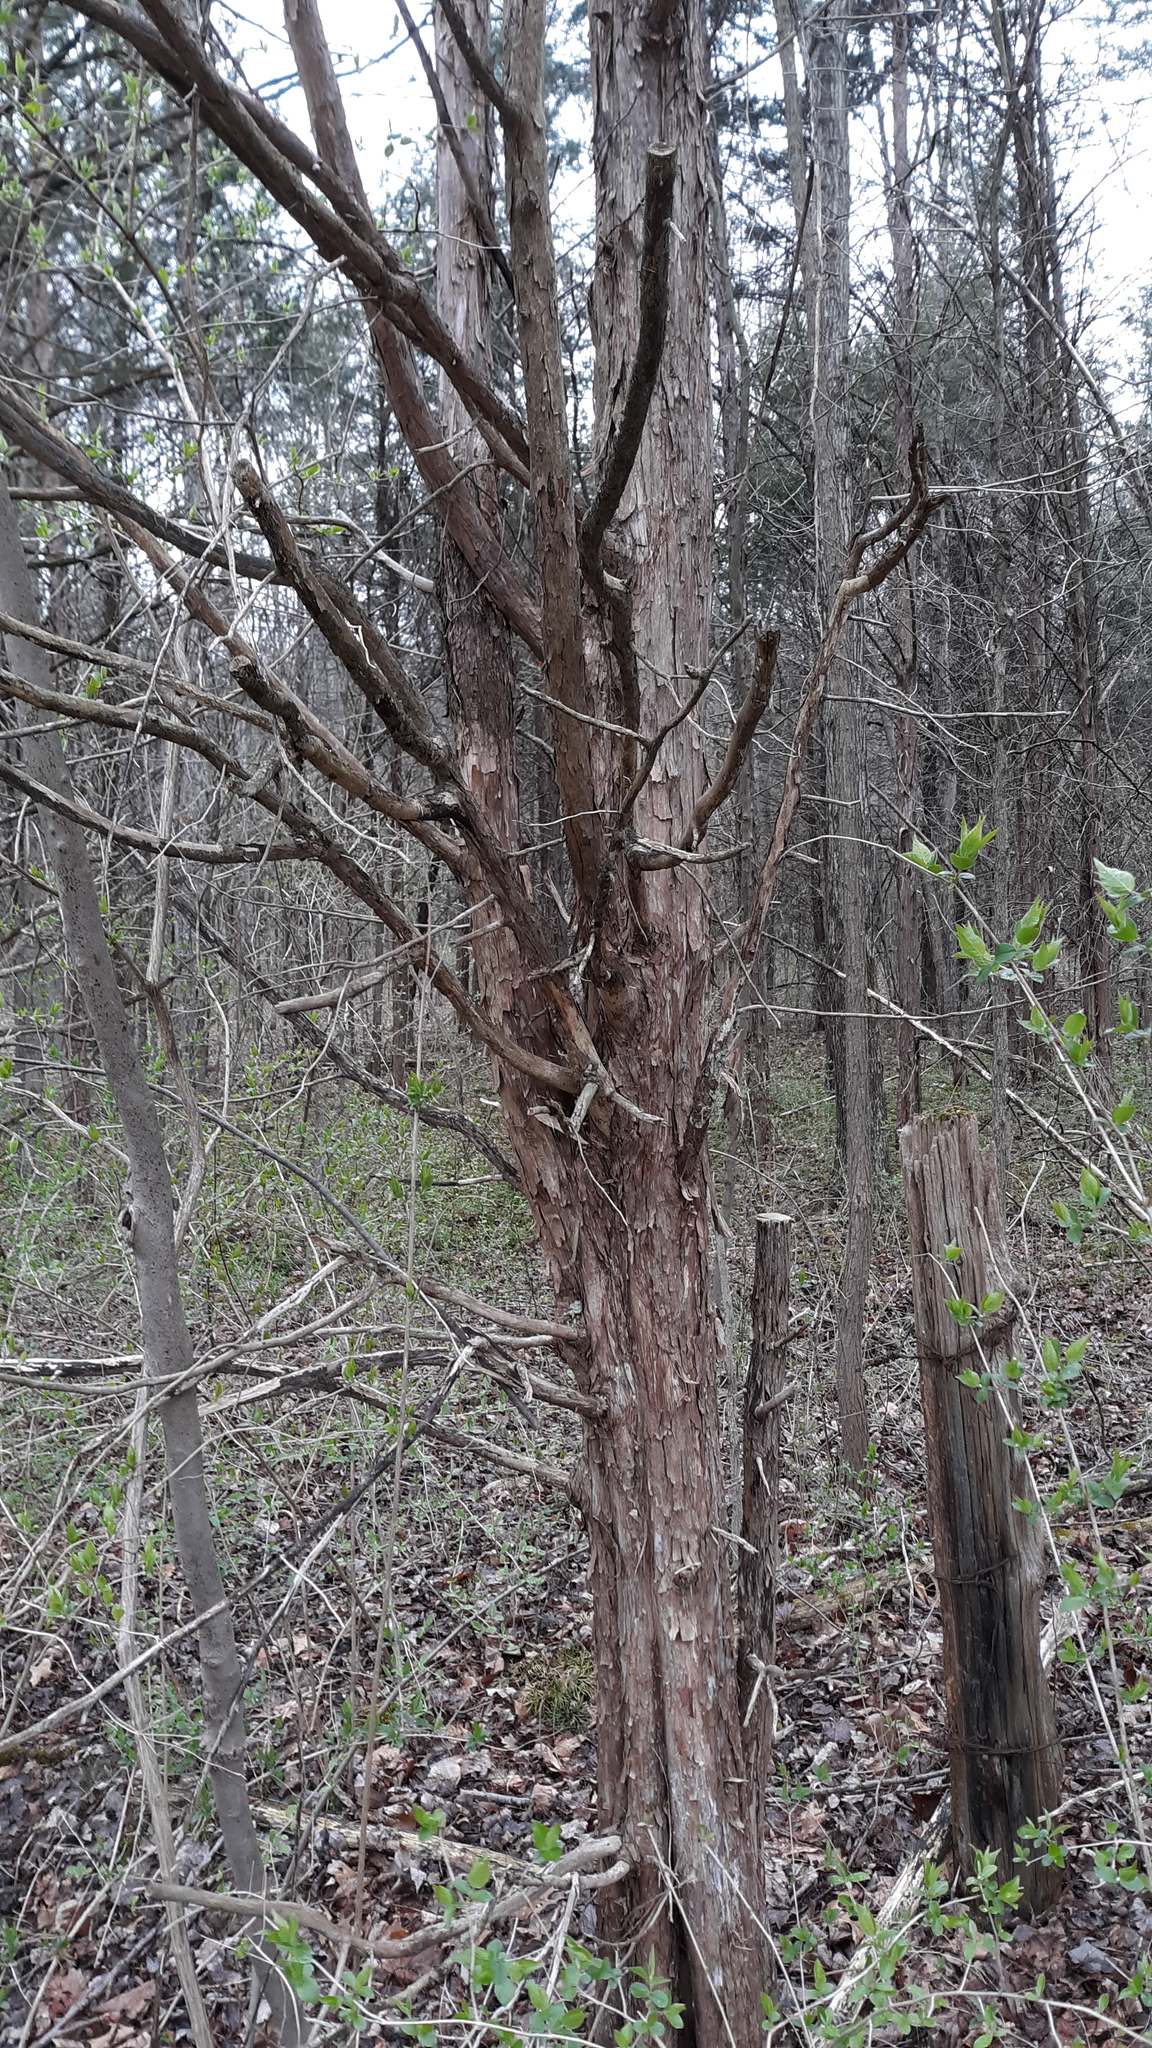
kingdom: Plantae
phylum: Tracheophyta
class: Pinopsida
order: Pinales
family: Cupressaceae
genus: Juniperus
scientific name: Juniperus virginiana
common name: Red juniper
